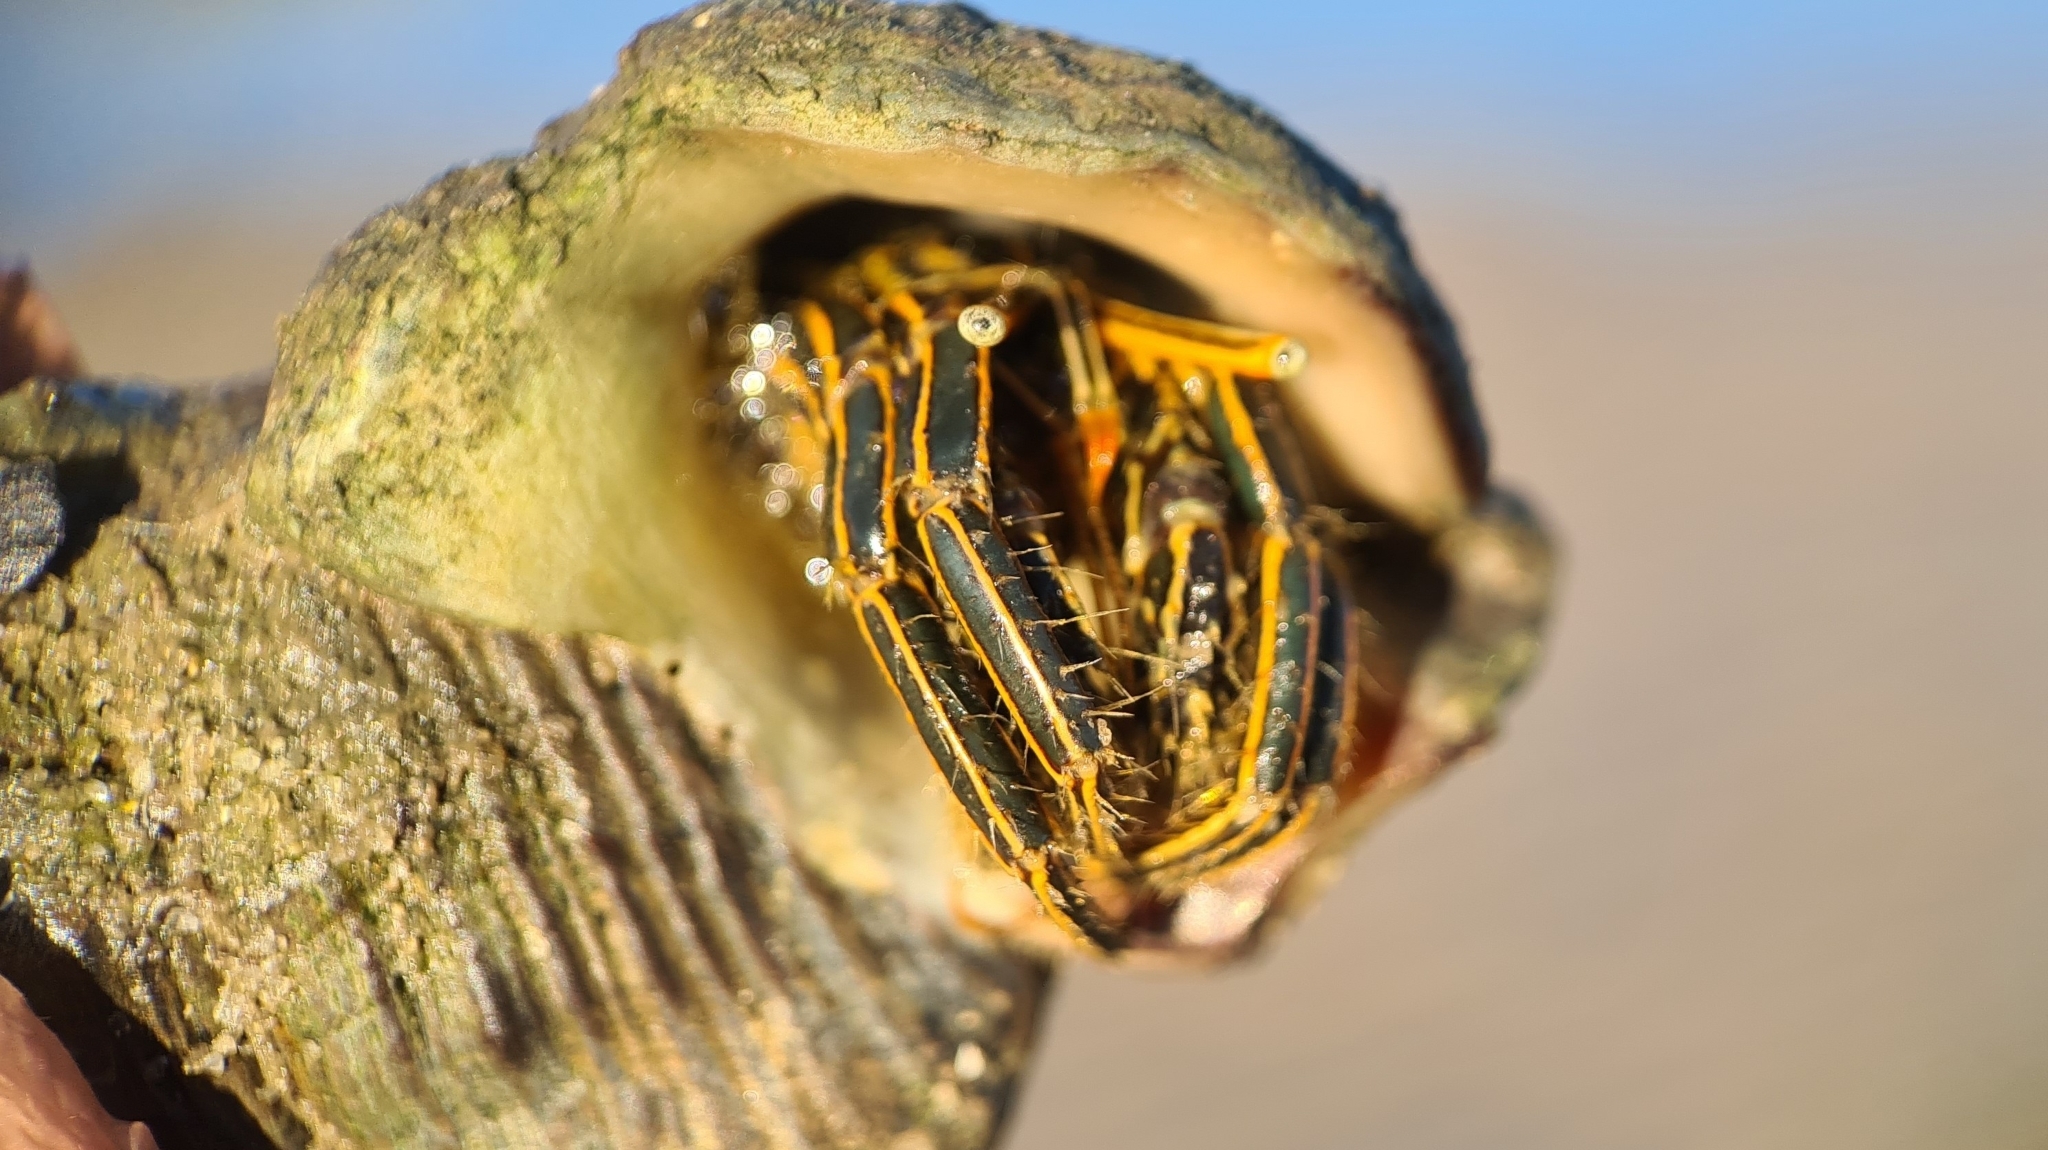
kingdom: Animalia
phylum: Arthropoda
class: Malacostraca
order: Decapoda
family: Diogenidae
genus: Clibanarius
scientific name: Clibanarius taeniatus
